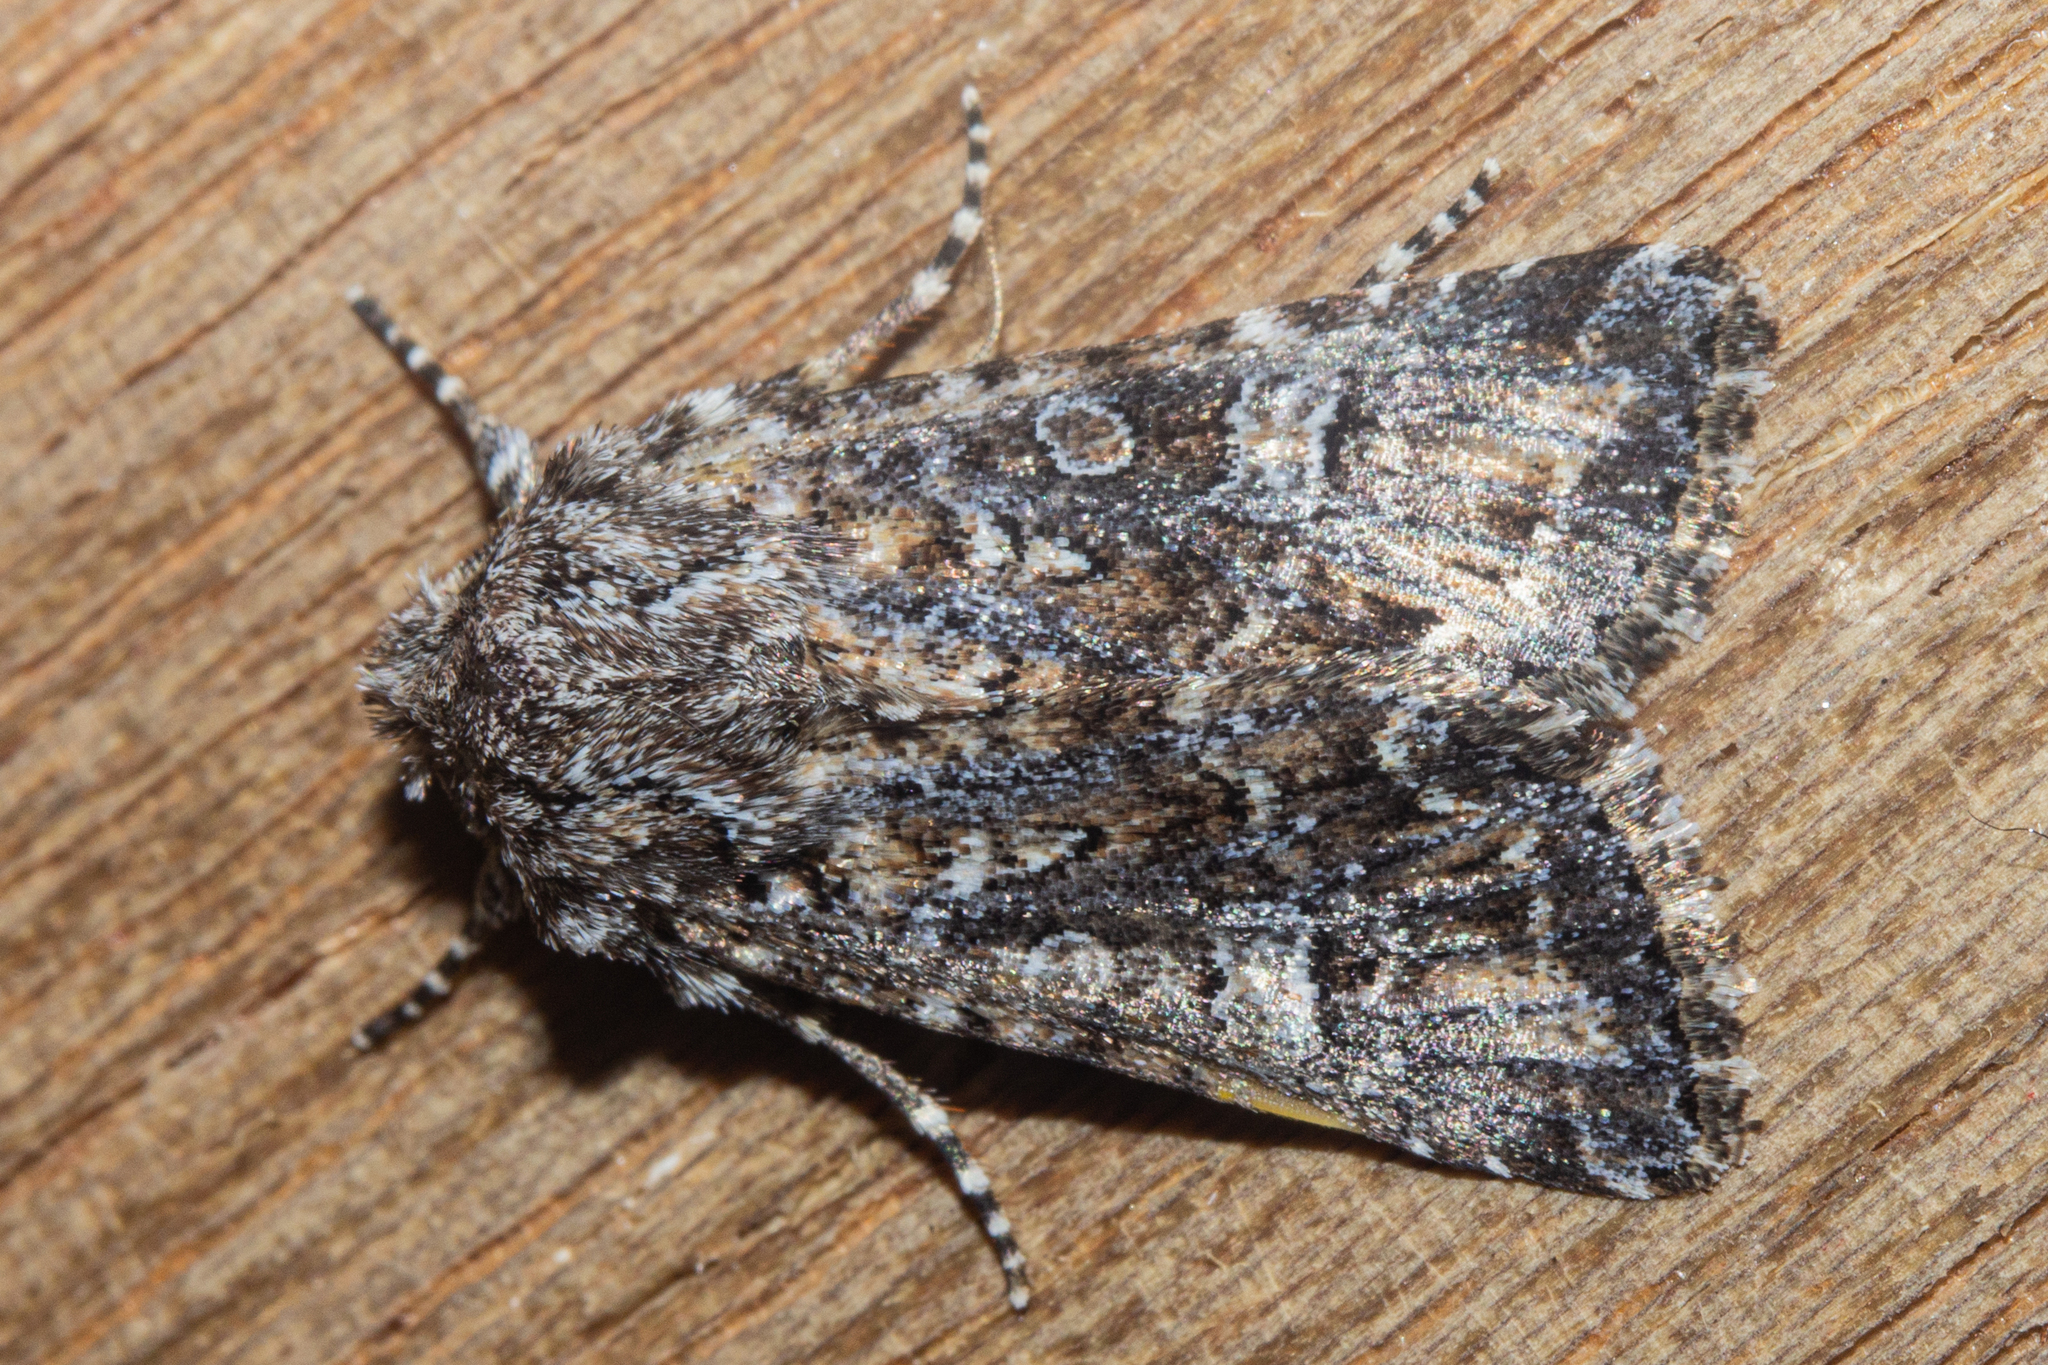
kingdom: Animalia
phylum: Arthropoda
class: Insecta
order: Lepidoptera
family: Noctuidae
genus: Ichneutica
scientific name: Ichneutica lithias
